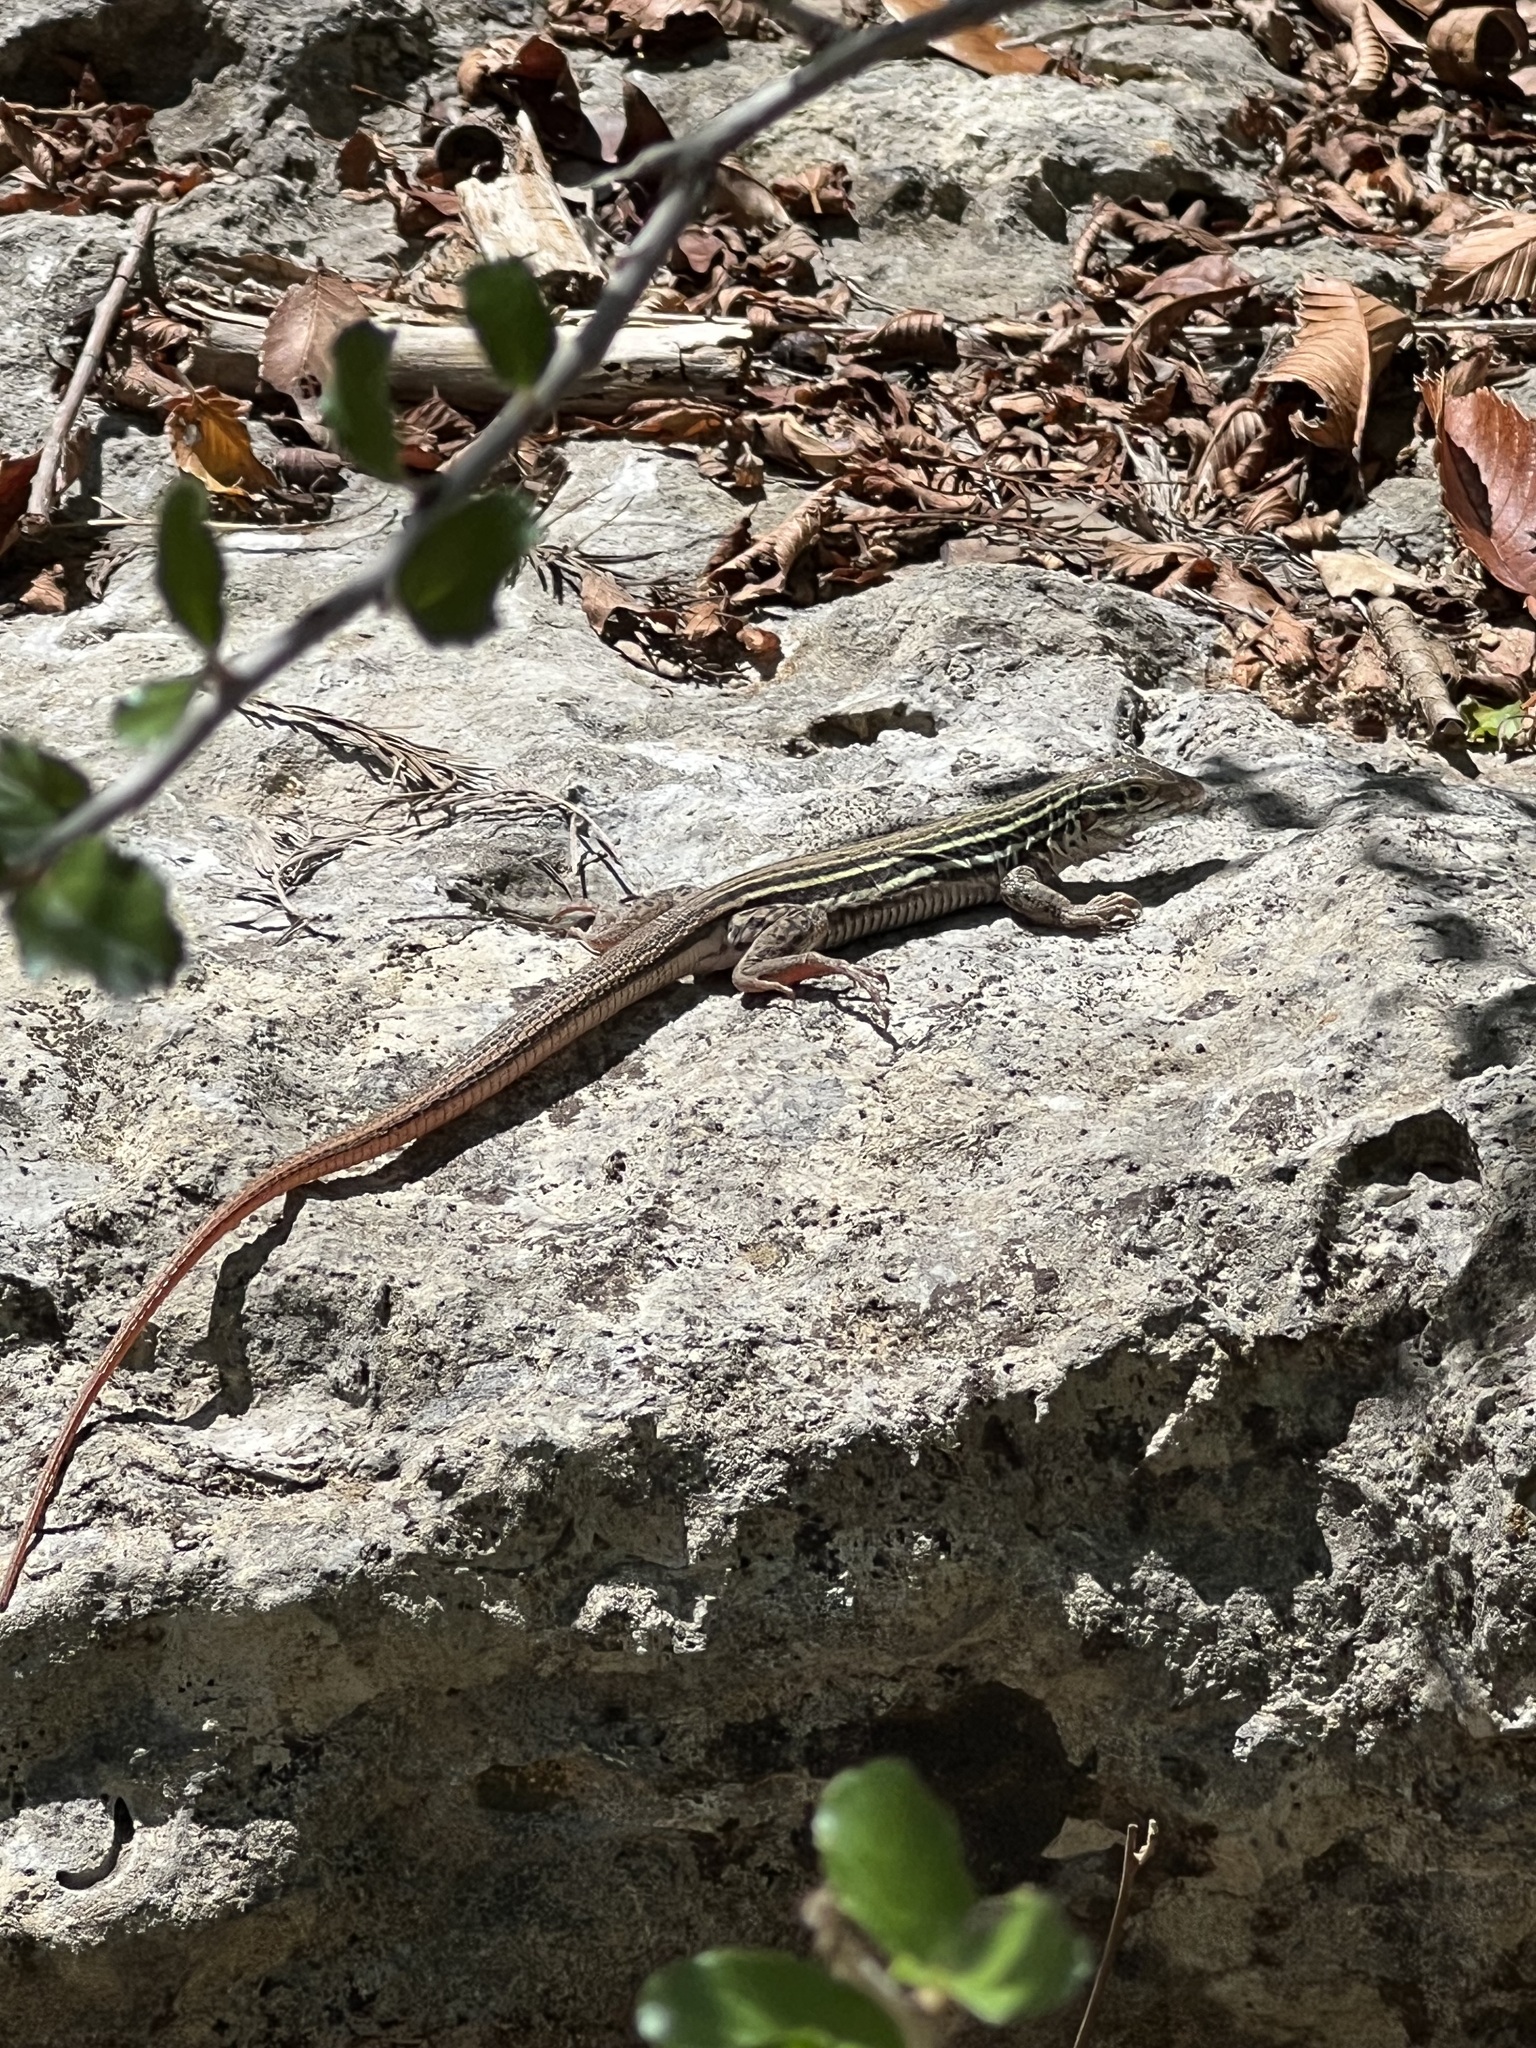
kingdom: Animalia
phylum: Chordata
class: Squamata
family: Teiidae
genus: Aspidoscelis
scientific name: Aspidoscelis gularis
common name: Eastern spotted whiptail
